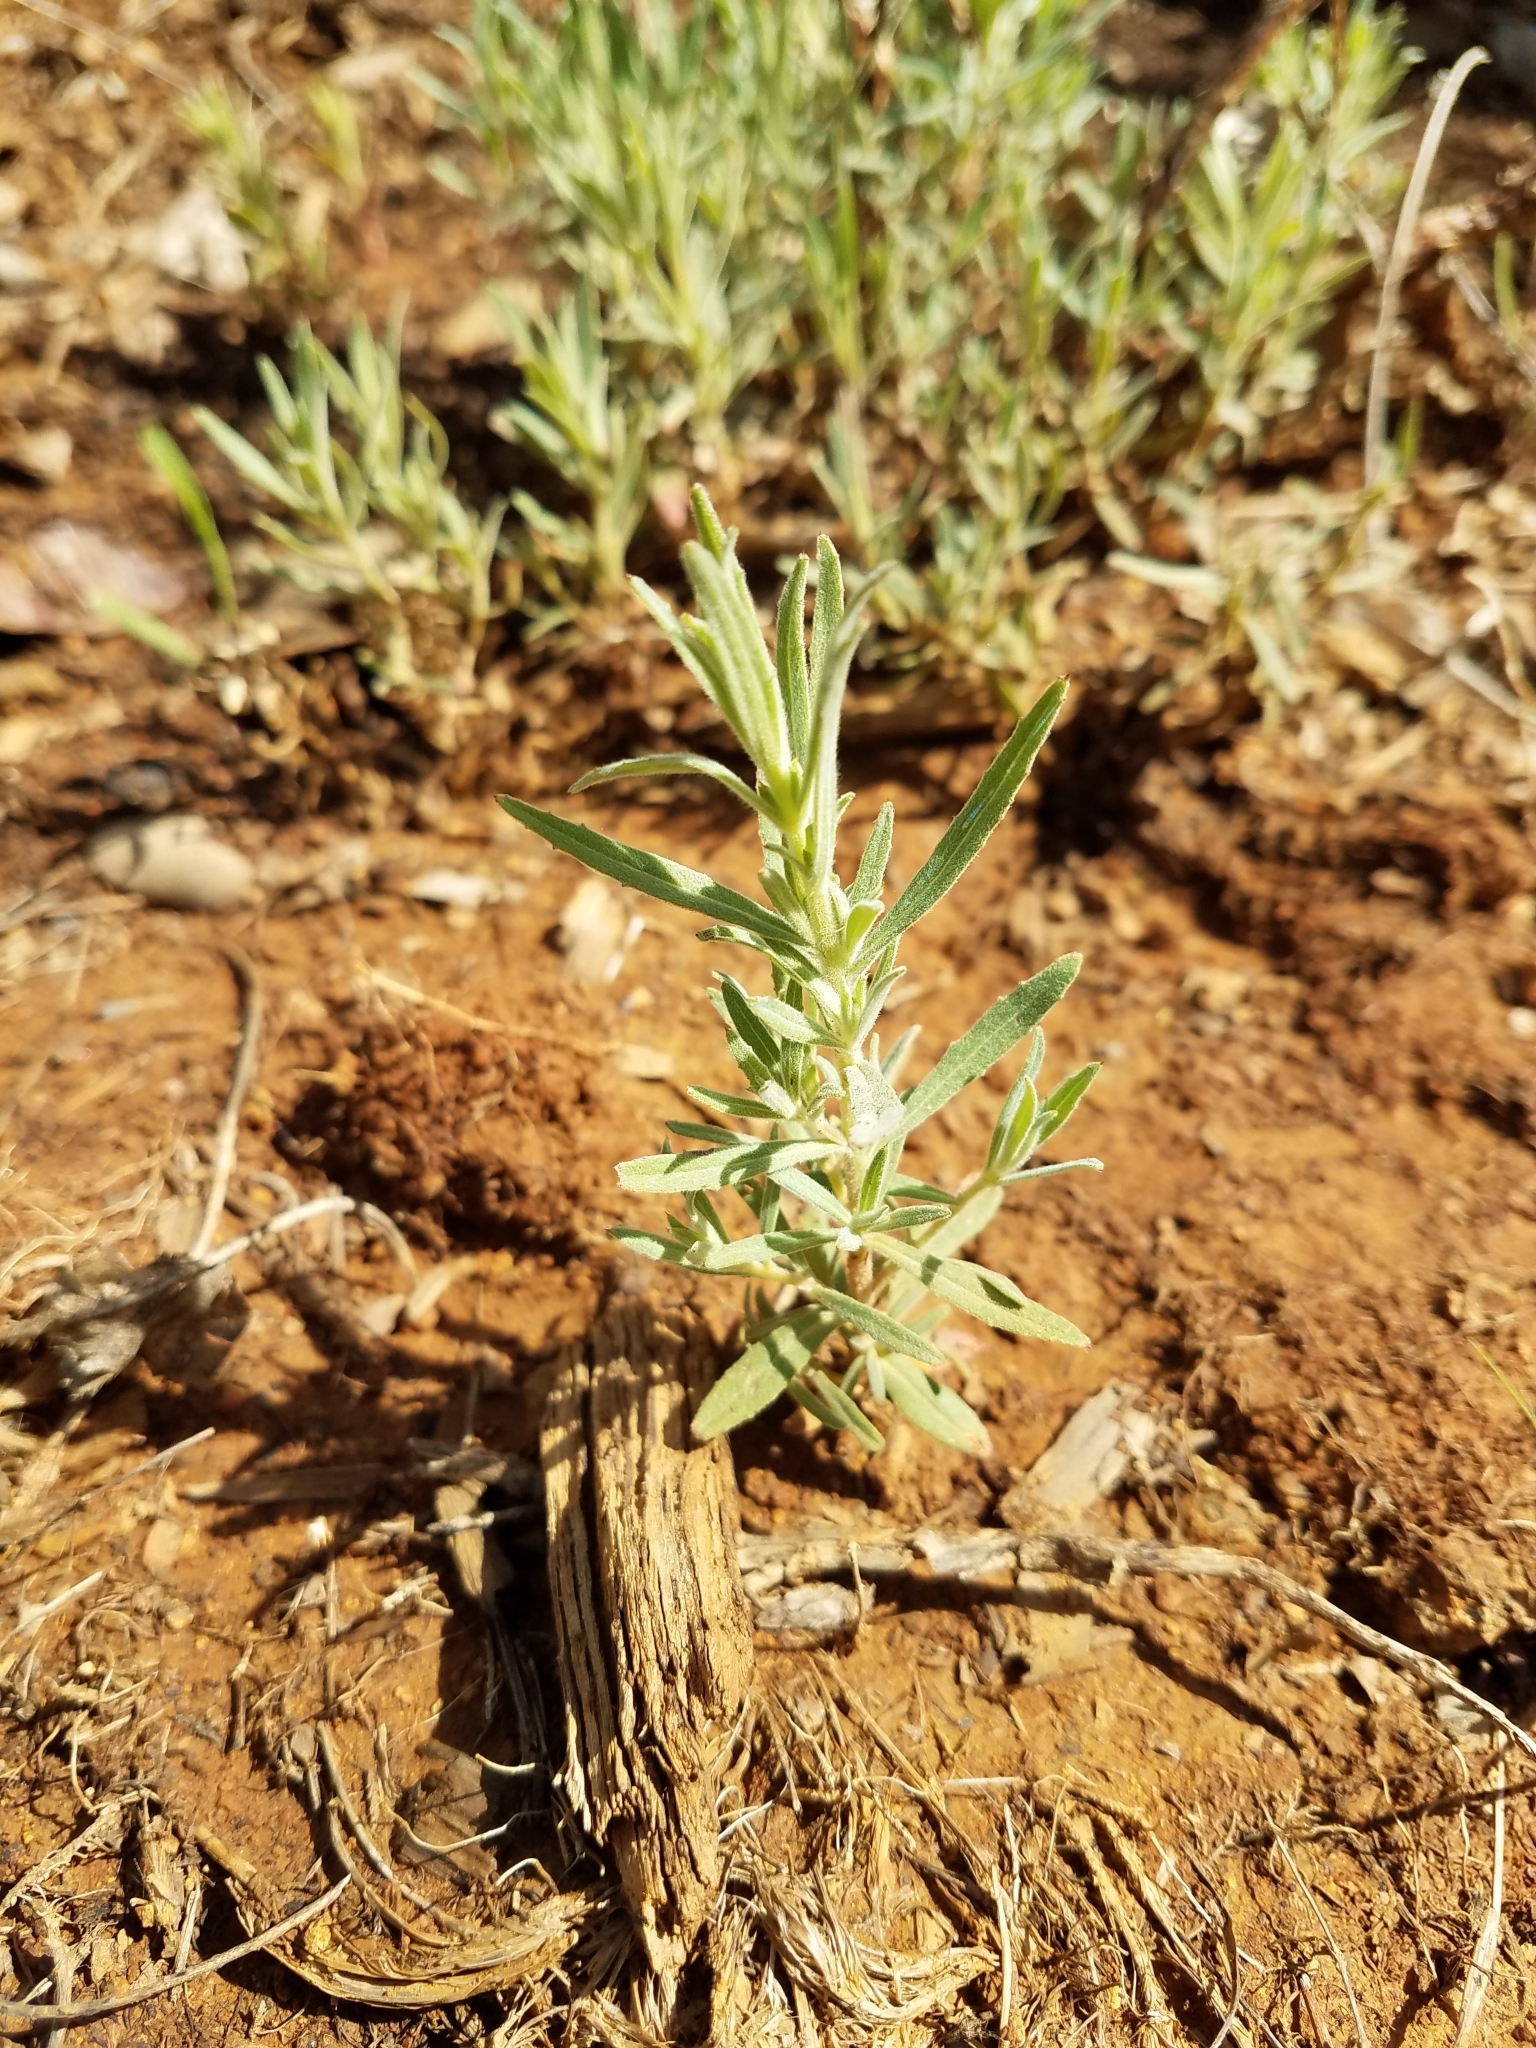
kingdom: Plantae
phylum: Tracheophyta
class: Magnoliopsida
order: Myrtales
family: Onagraceae
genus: Epilobium
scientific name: Epilobium canum
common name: California-fuchsia
